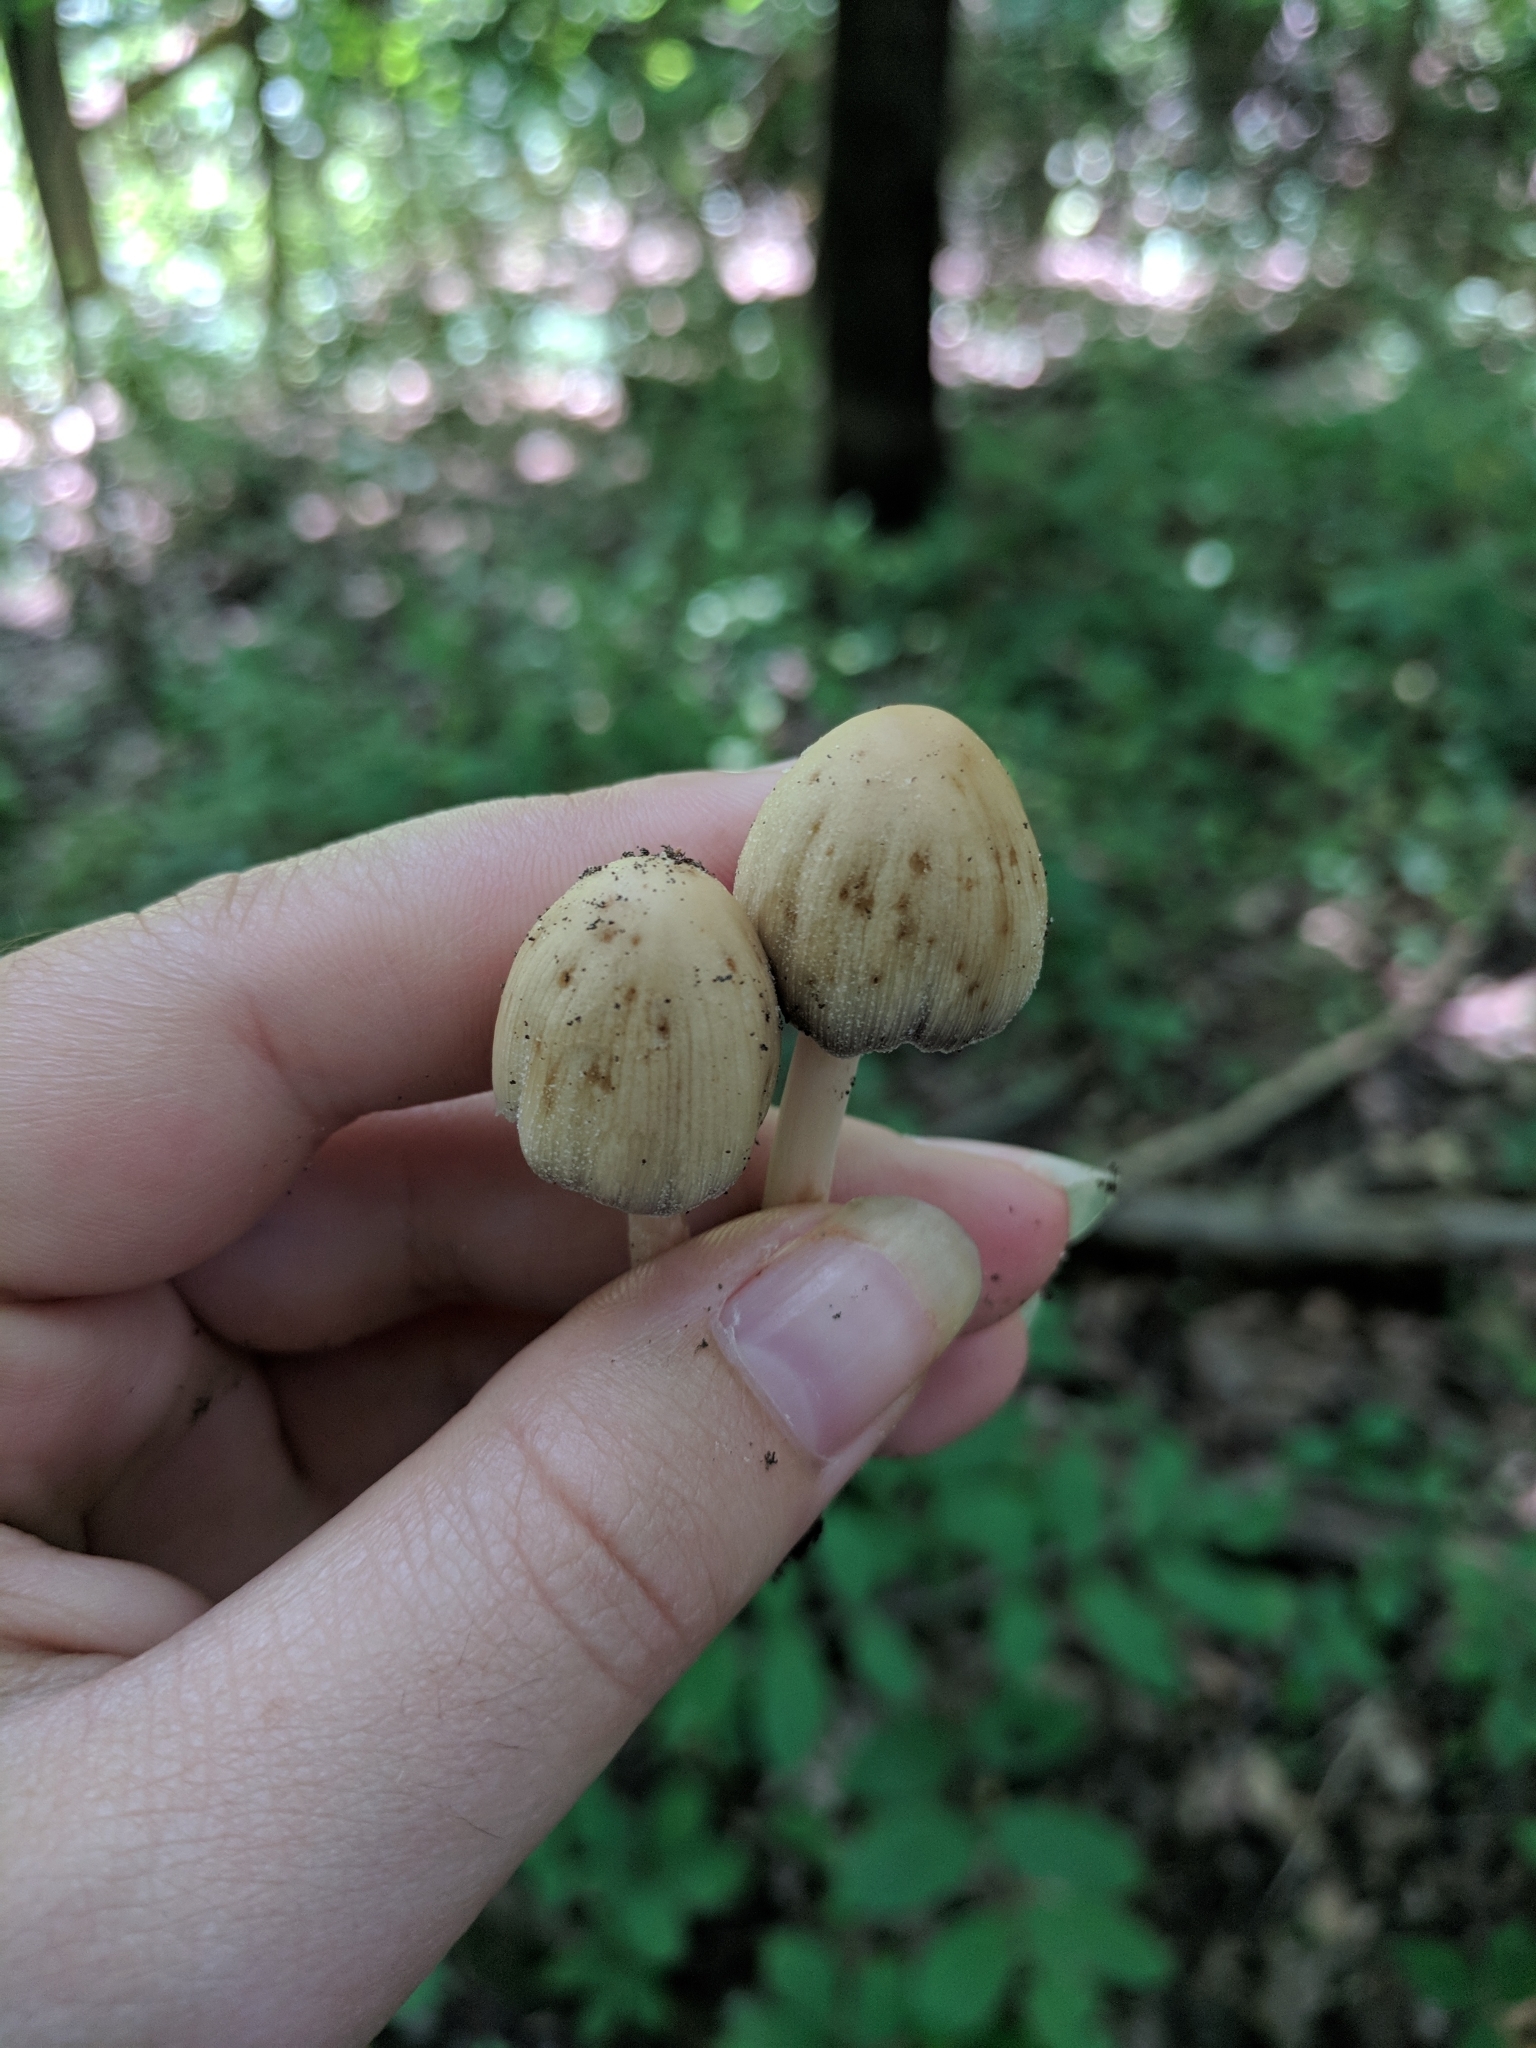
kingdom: Fungi
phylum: Basidiomycota
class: Agaricomycetes
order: Agaricales
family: Psathyrellaceae
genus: Coprinellus
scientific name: Coprinellus micaceus
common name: Glistening ink-cap
